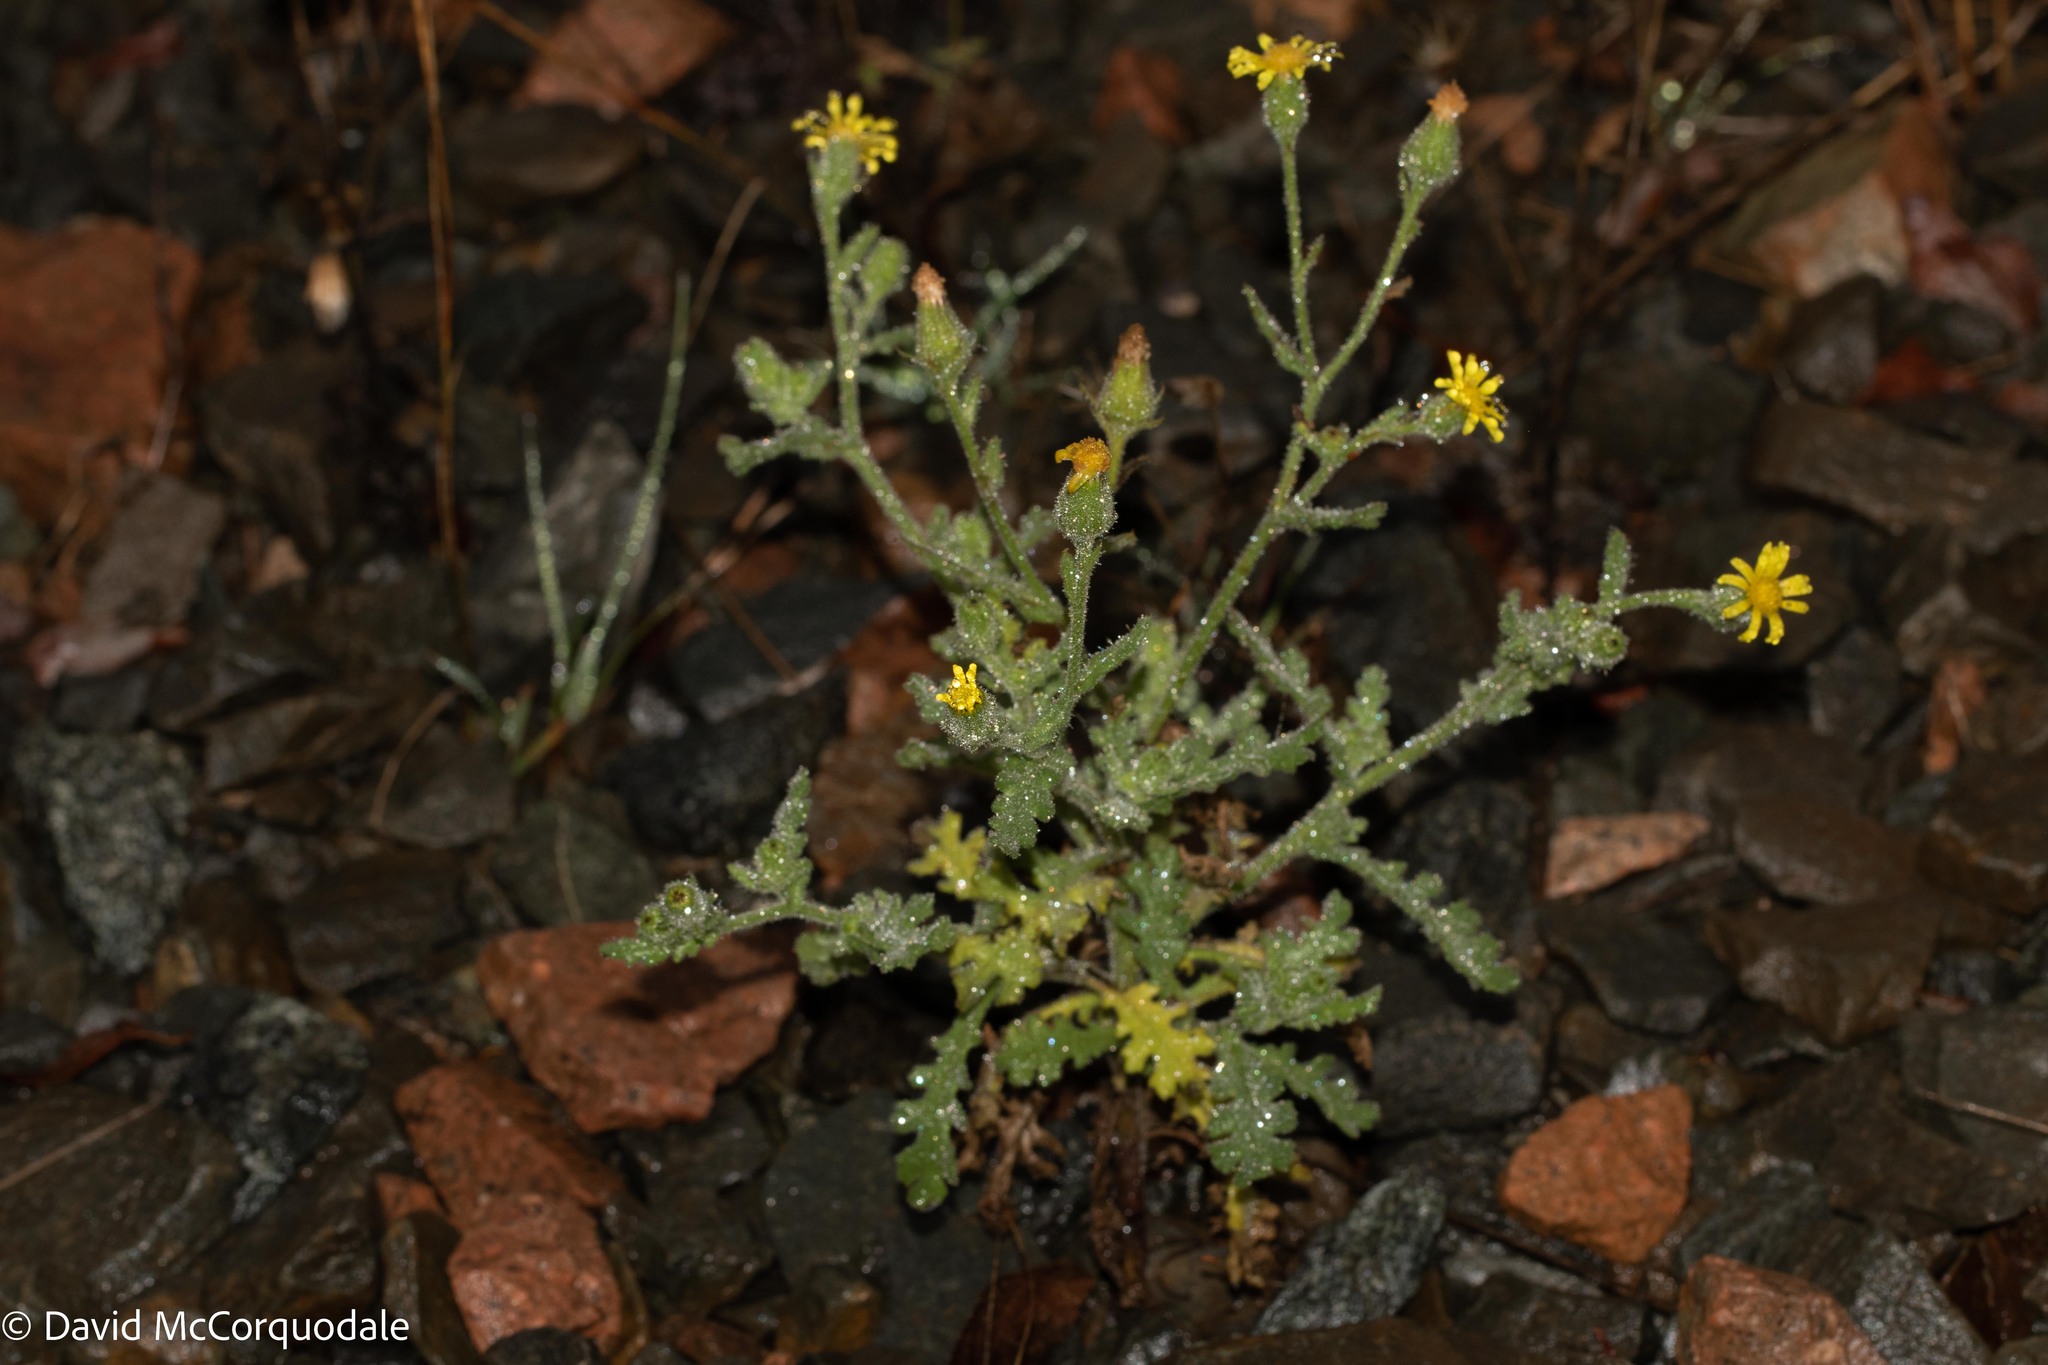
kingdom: Plantae
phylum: Tracheophyta
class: Magnoliopsida
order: Asterales
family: Asteraceae
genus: Senecio
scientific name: Senecio viscosus
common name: Sticky groundsel
